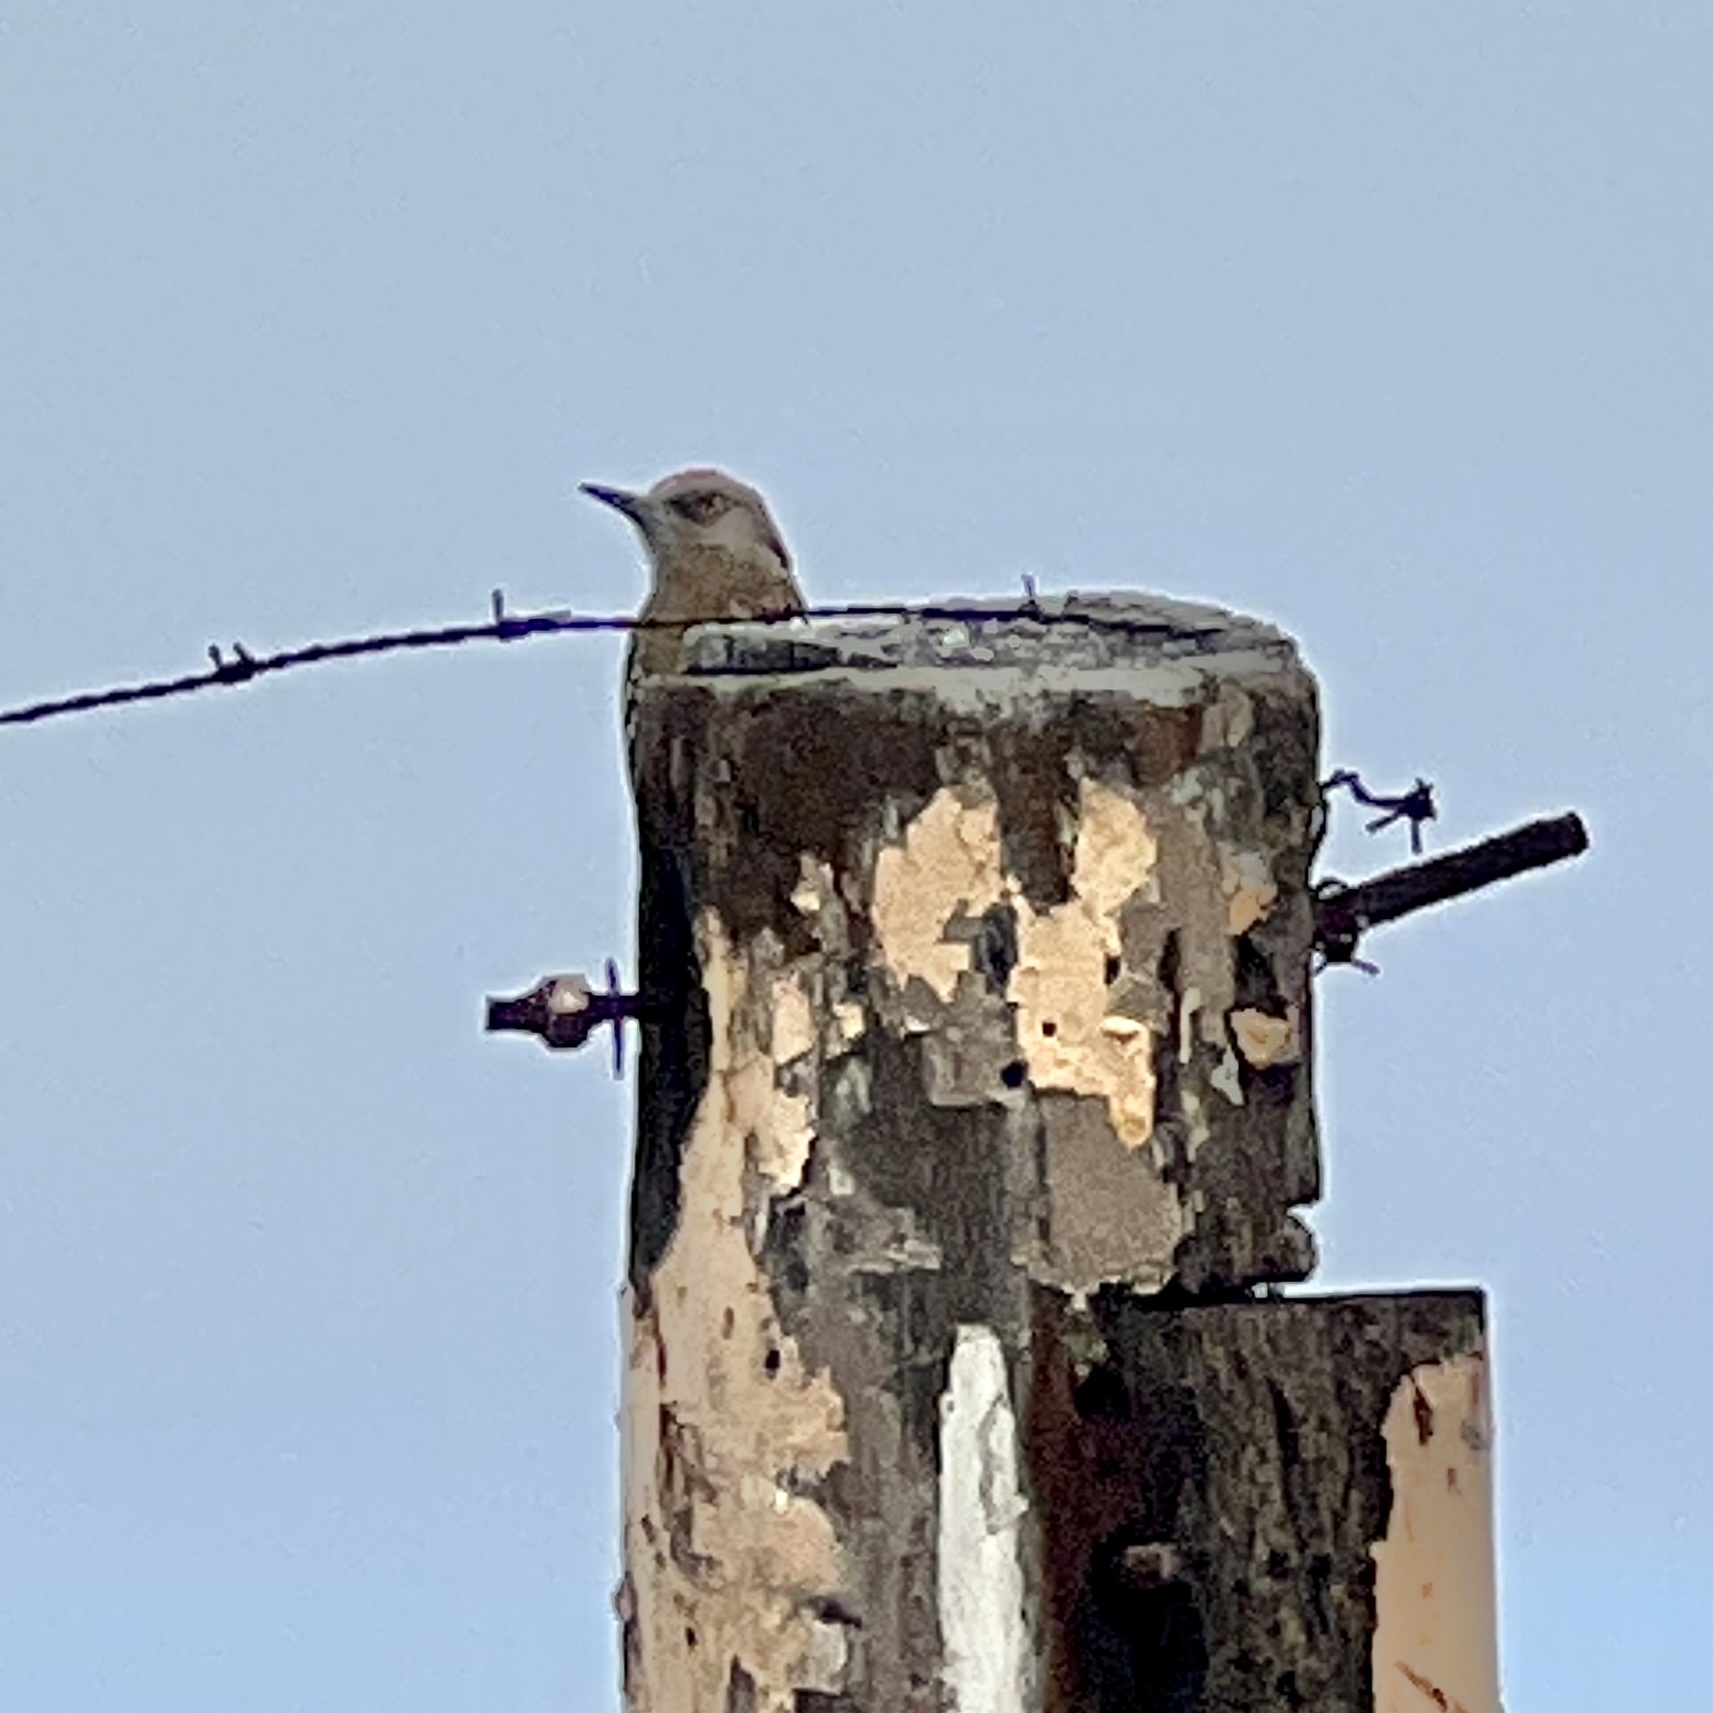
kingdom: Animalia
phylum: Chordata
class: Aves
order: Piciformes
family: Picidae
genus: Melanerpes
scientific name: Melanerpes striatus
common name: Hispaniolan woodpecker
